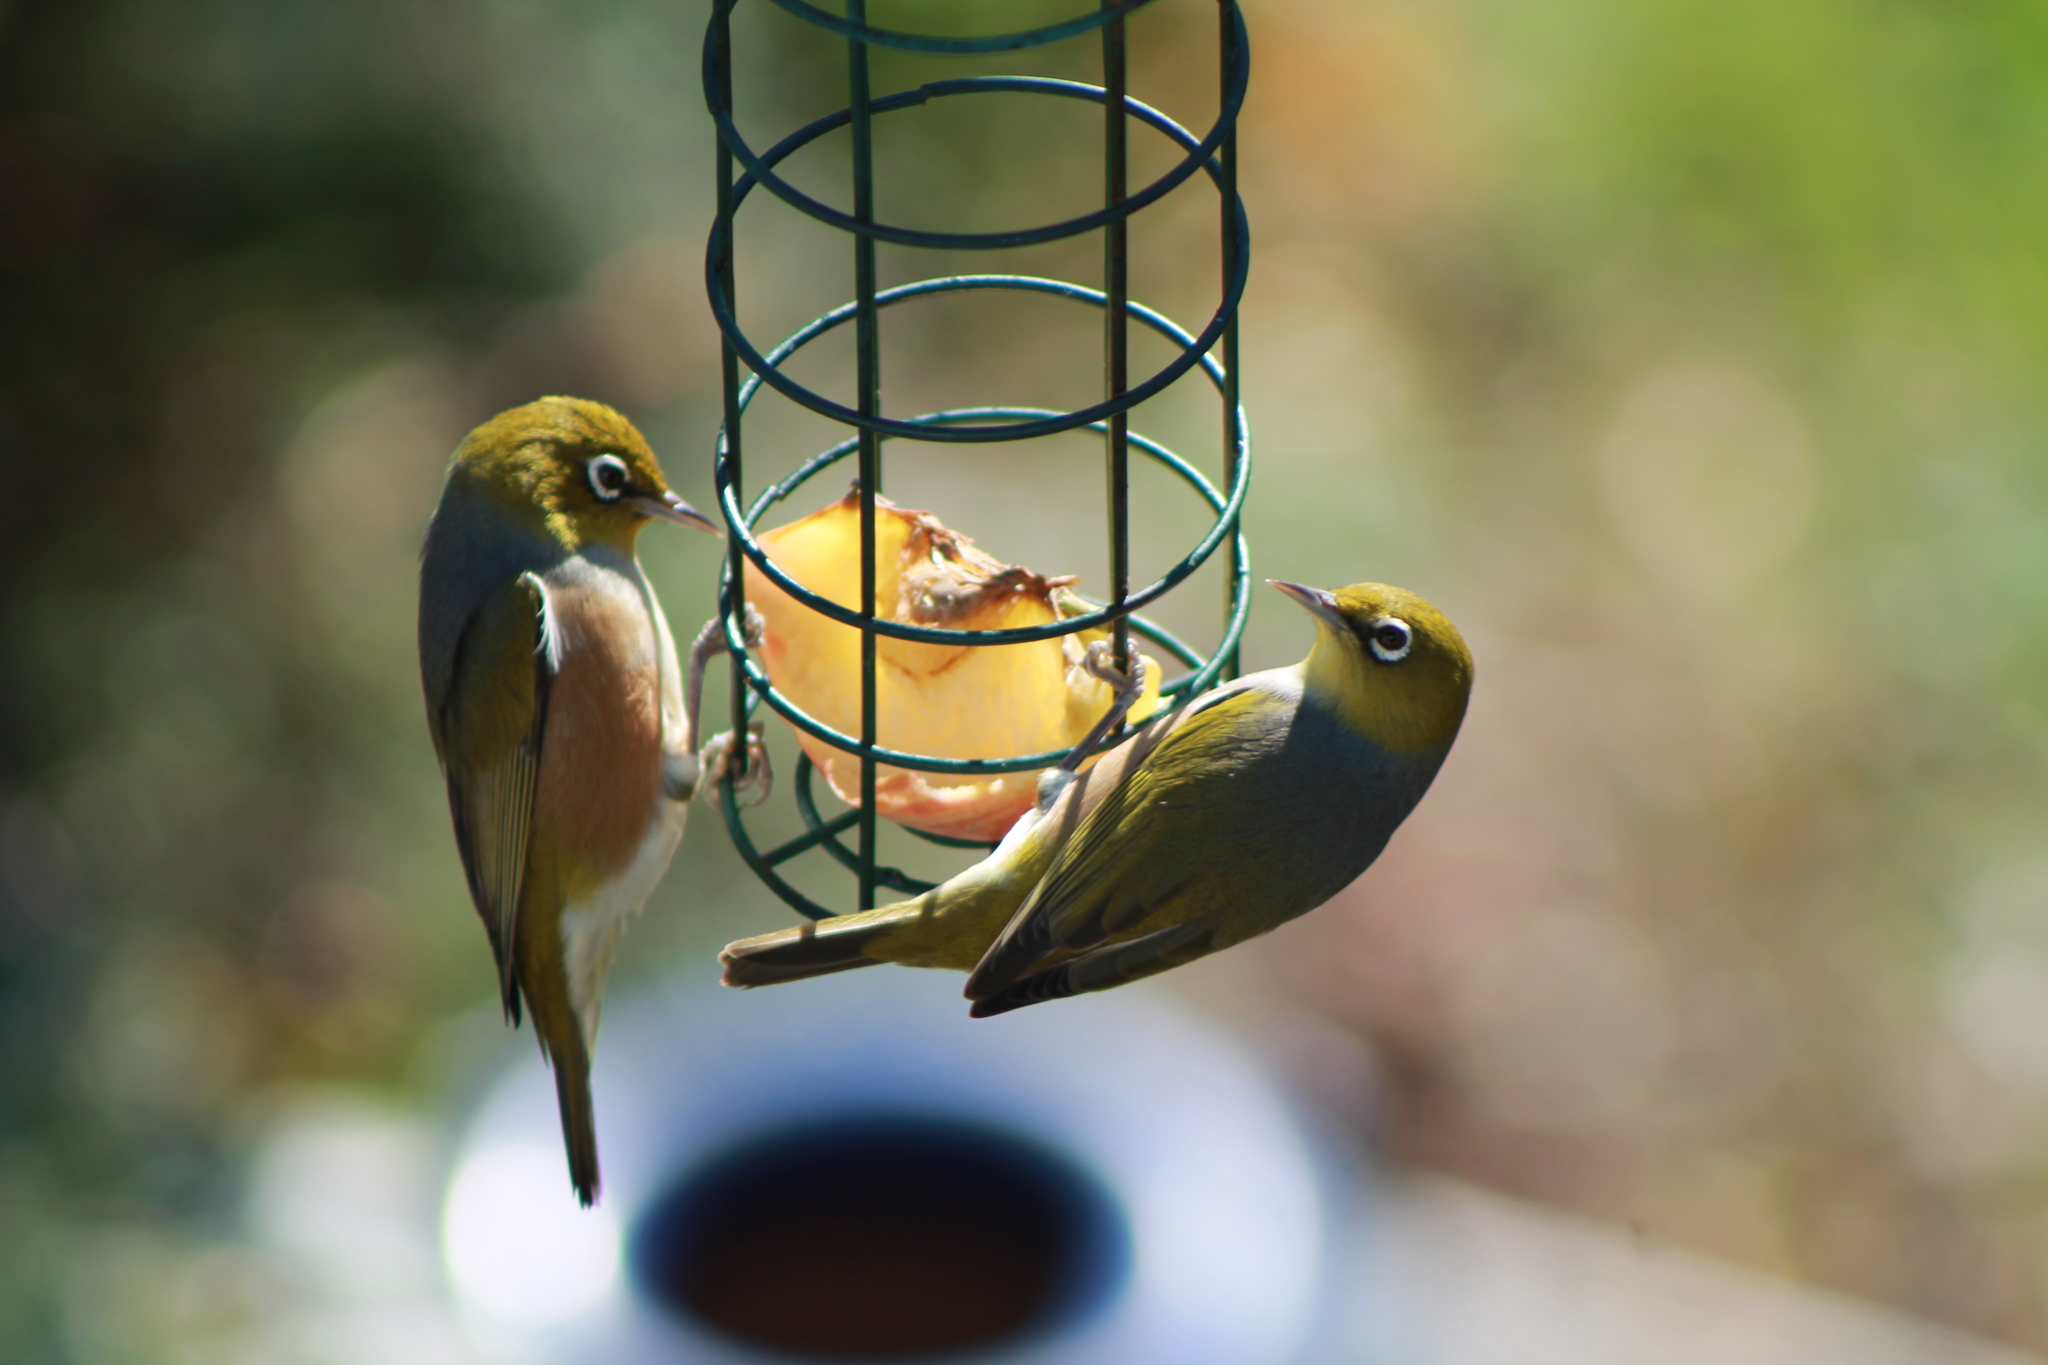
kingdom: Animalia
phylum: Chordata
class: Aves
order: Passeriformes
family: Zosteropidae
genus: Zosterops
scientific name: Zosterops lateralis
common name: Silvereye
